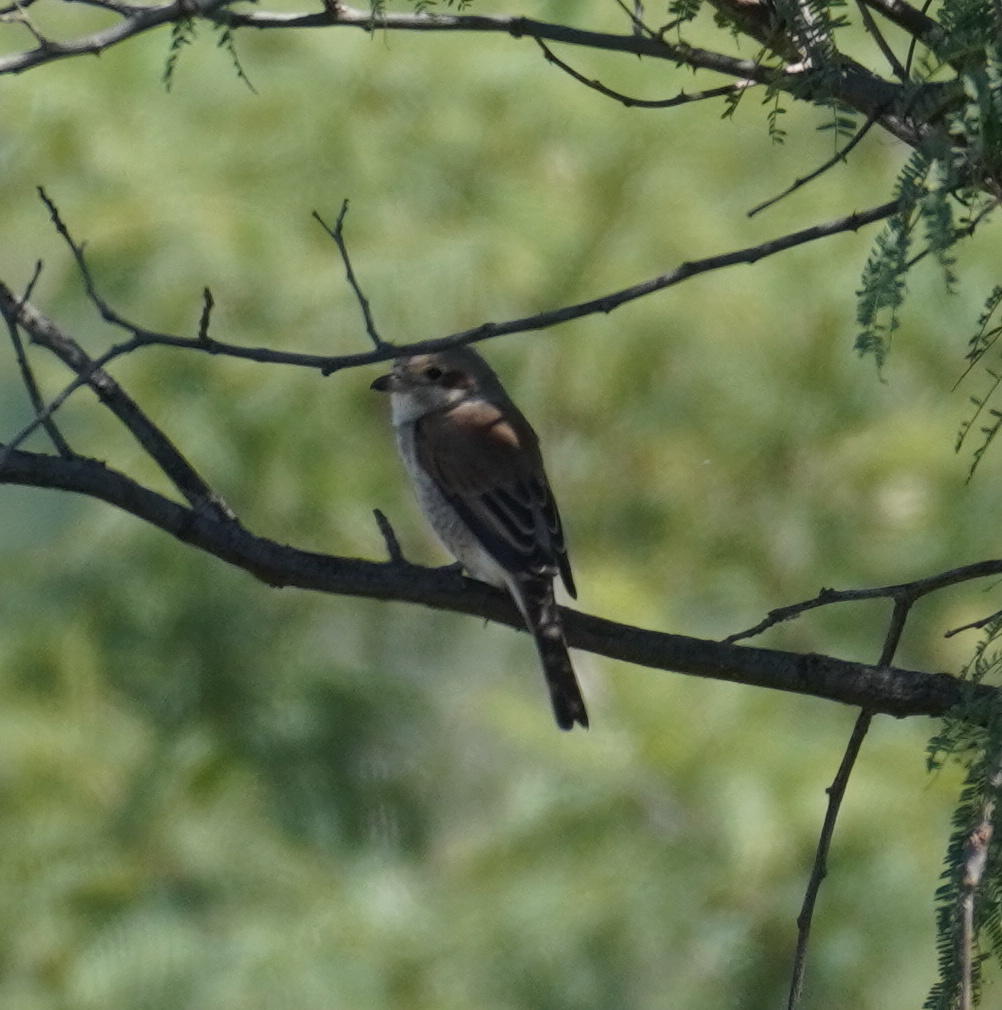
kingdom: Animalia
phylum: Chordata
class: Aves
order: Passeriformes
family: Laniidae
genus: Lanius
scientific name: Lanius collurio
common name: Red-backed shrike
